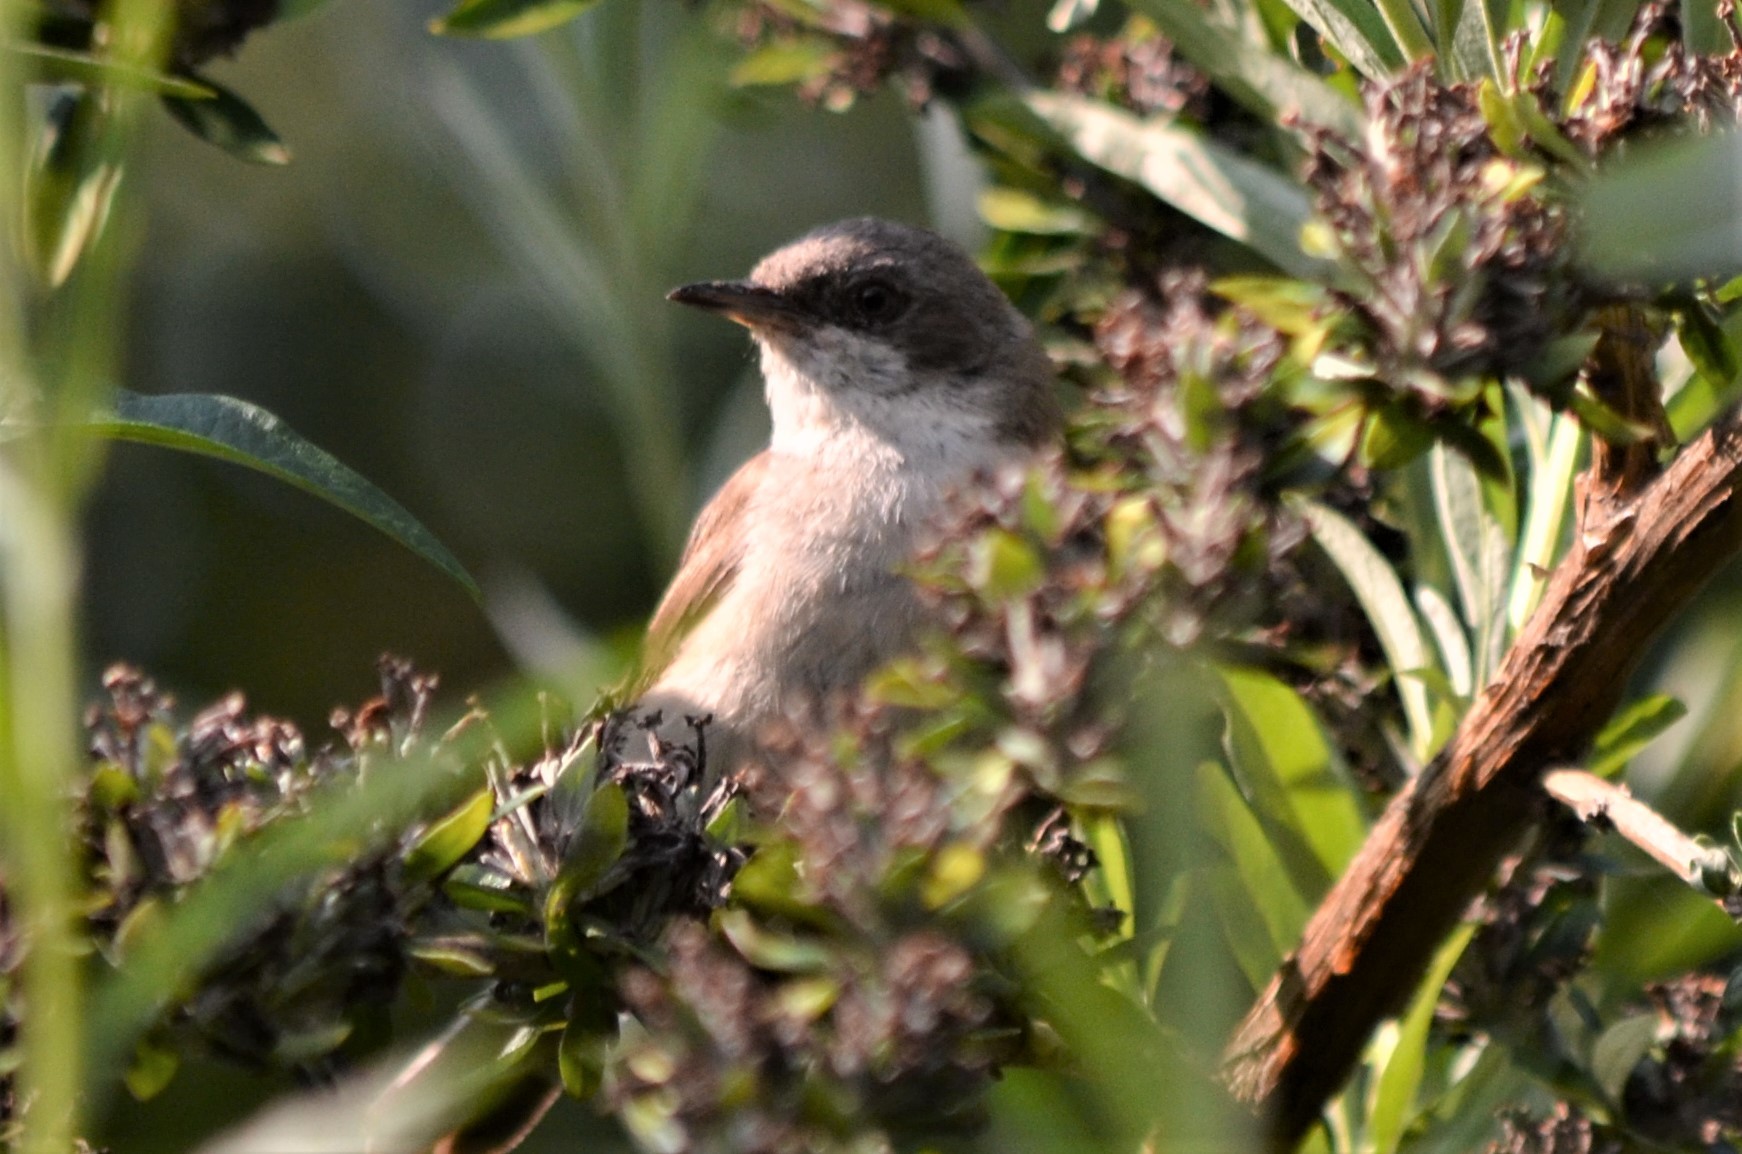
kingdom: Animalia
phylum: Chordata
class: Aves
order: Passeriformes
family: Sylviidae
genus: Sylvia
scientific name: Sylvia curruca
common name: Lesser whitethroat
